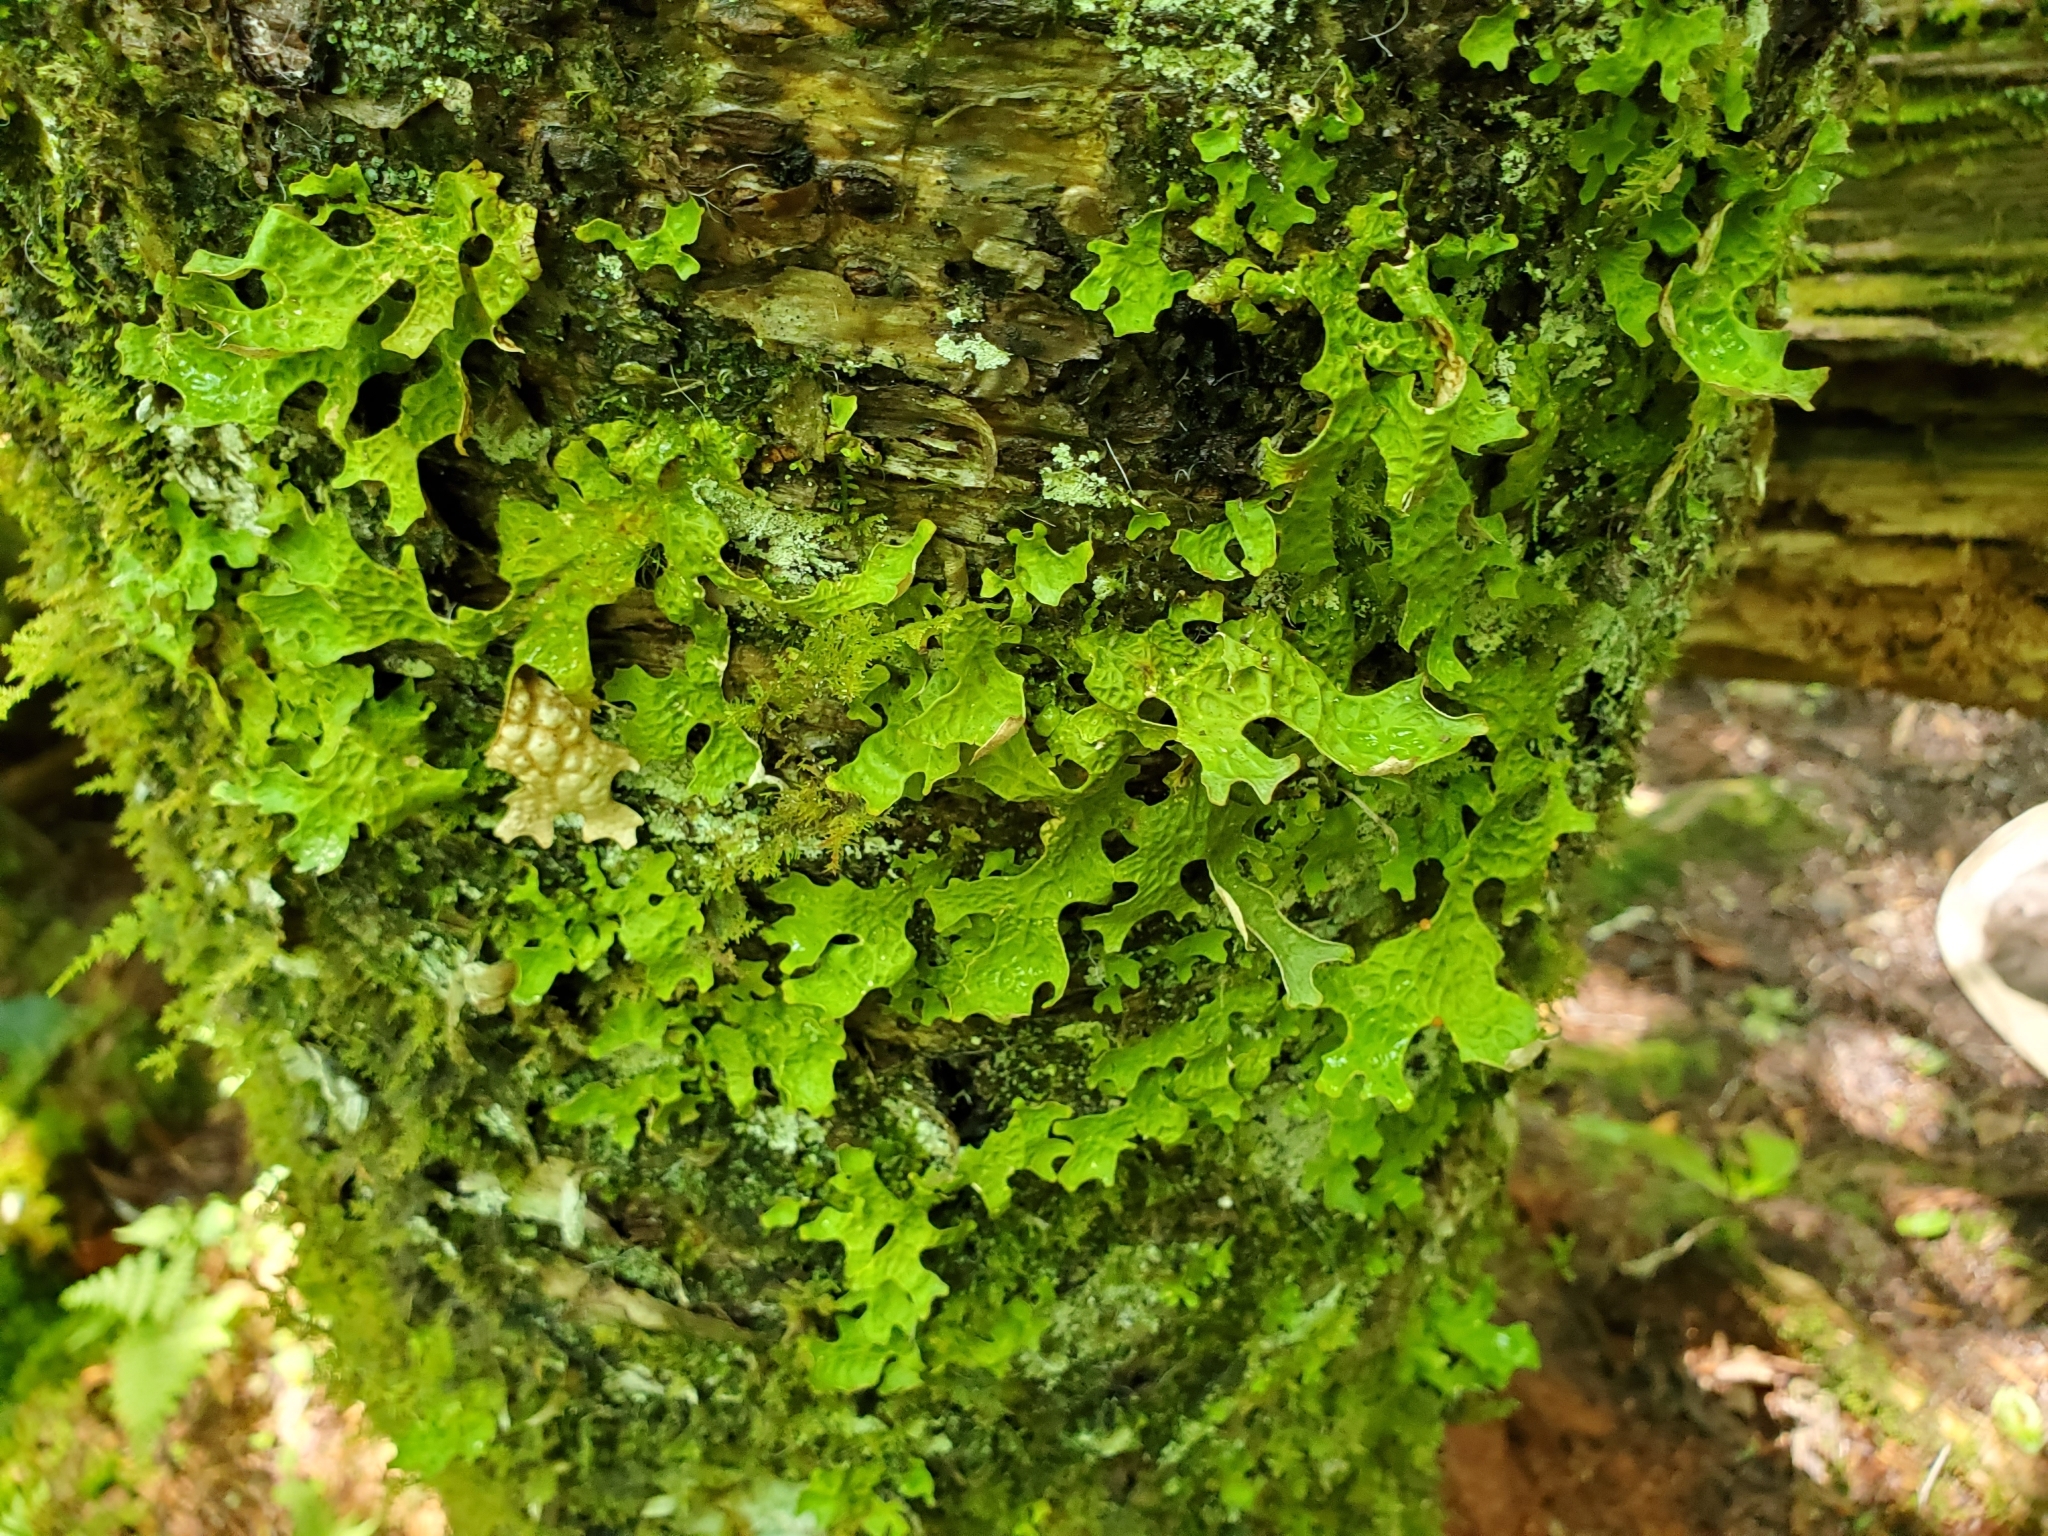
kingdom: Fungi
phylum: Ascomycota
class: Lecanoromycetes
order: Peltigerales
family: Lobariaceae
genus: Lobaria
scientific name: Lobaria pulmonaria
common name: Lungwort
